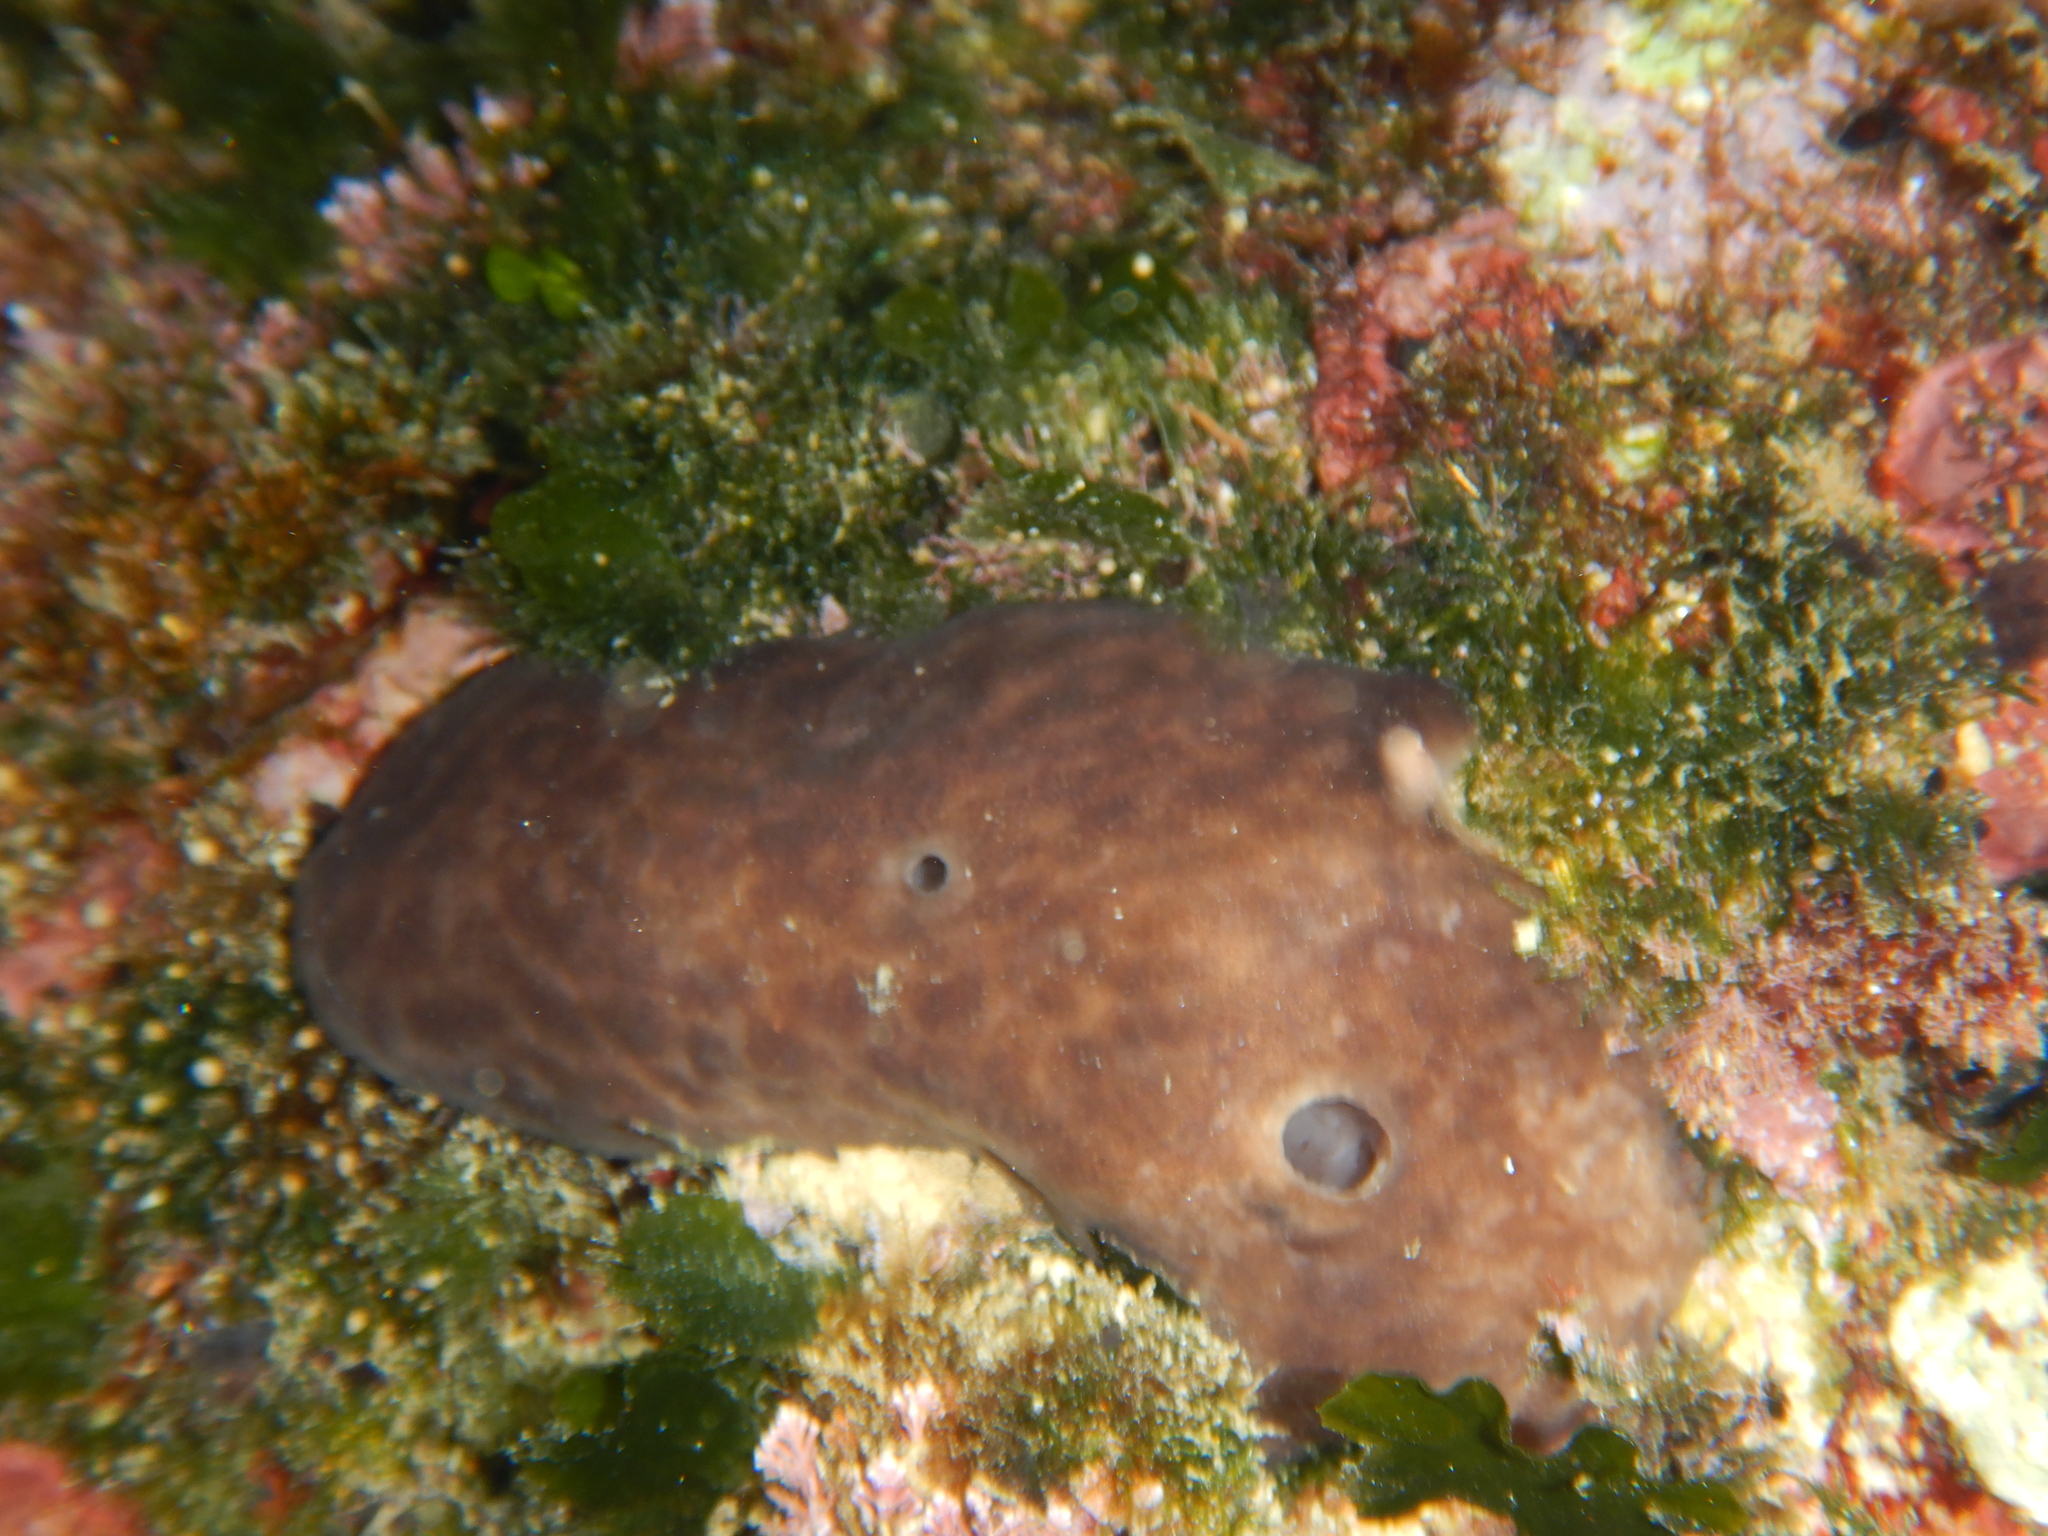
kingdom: Animalia
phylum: Porifera
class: Demospongiae
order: Chondrosiida
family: Chondrosiidae
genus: Chondrosia
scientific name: Chondrosia reniformis
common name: Chicken liver sponge
